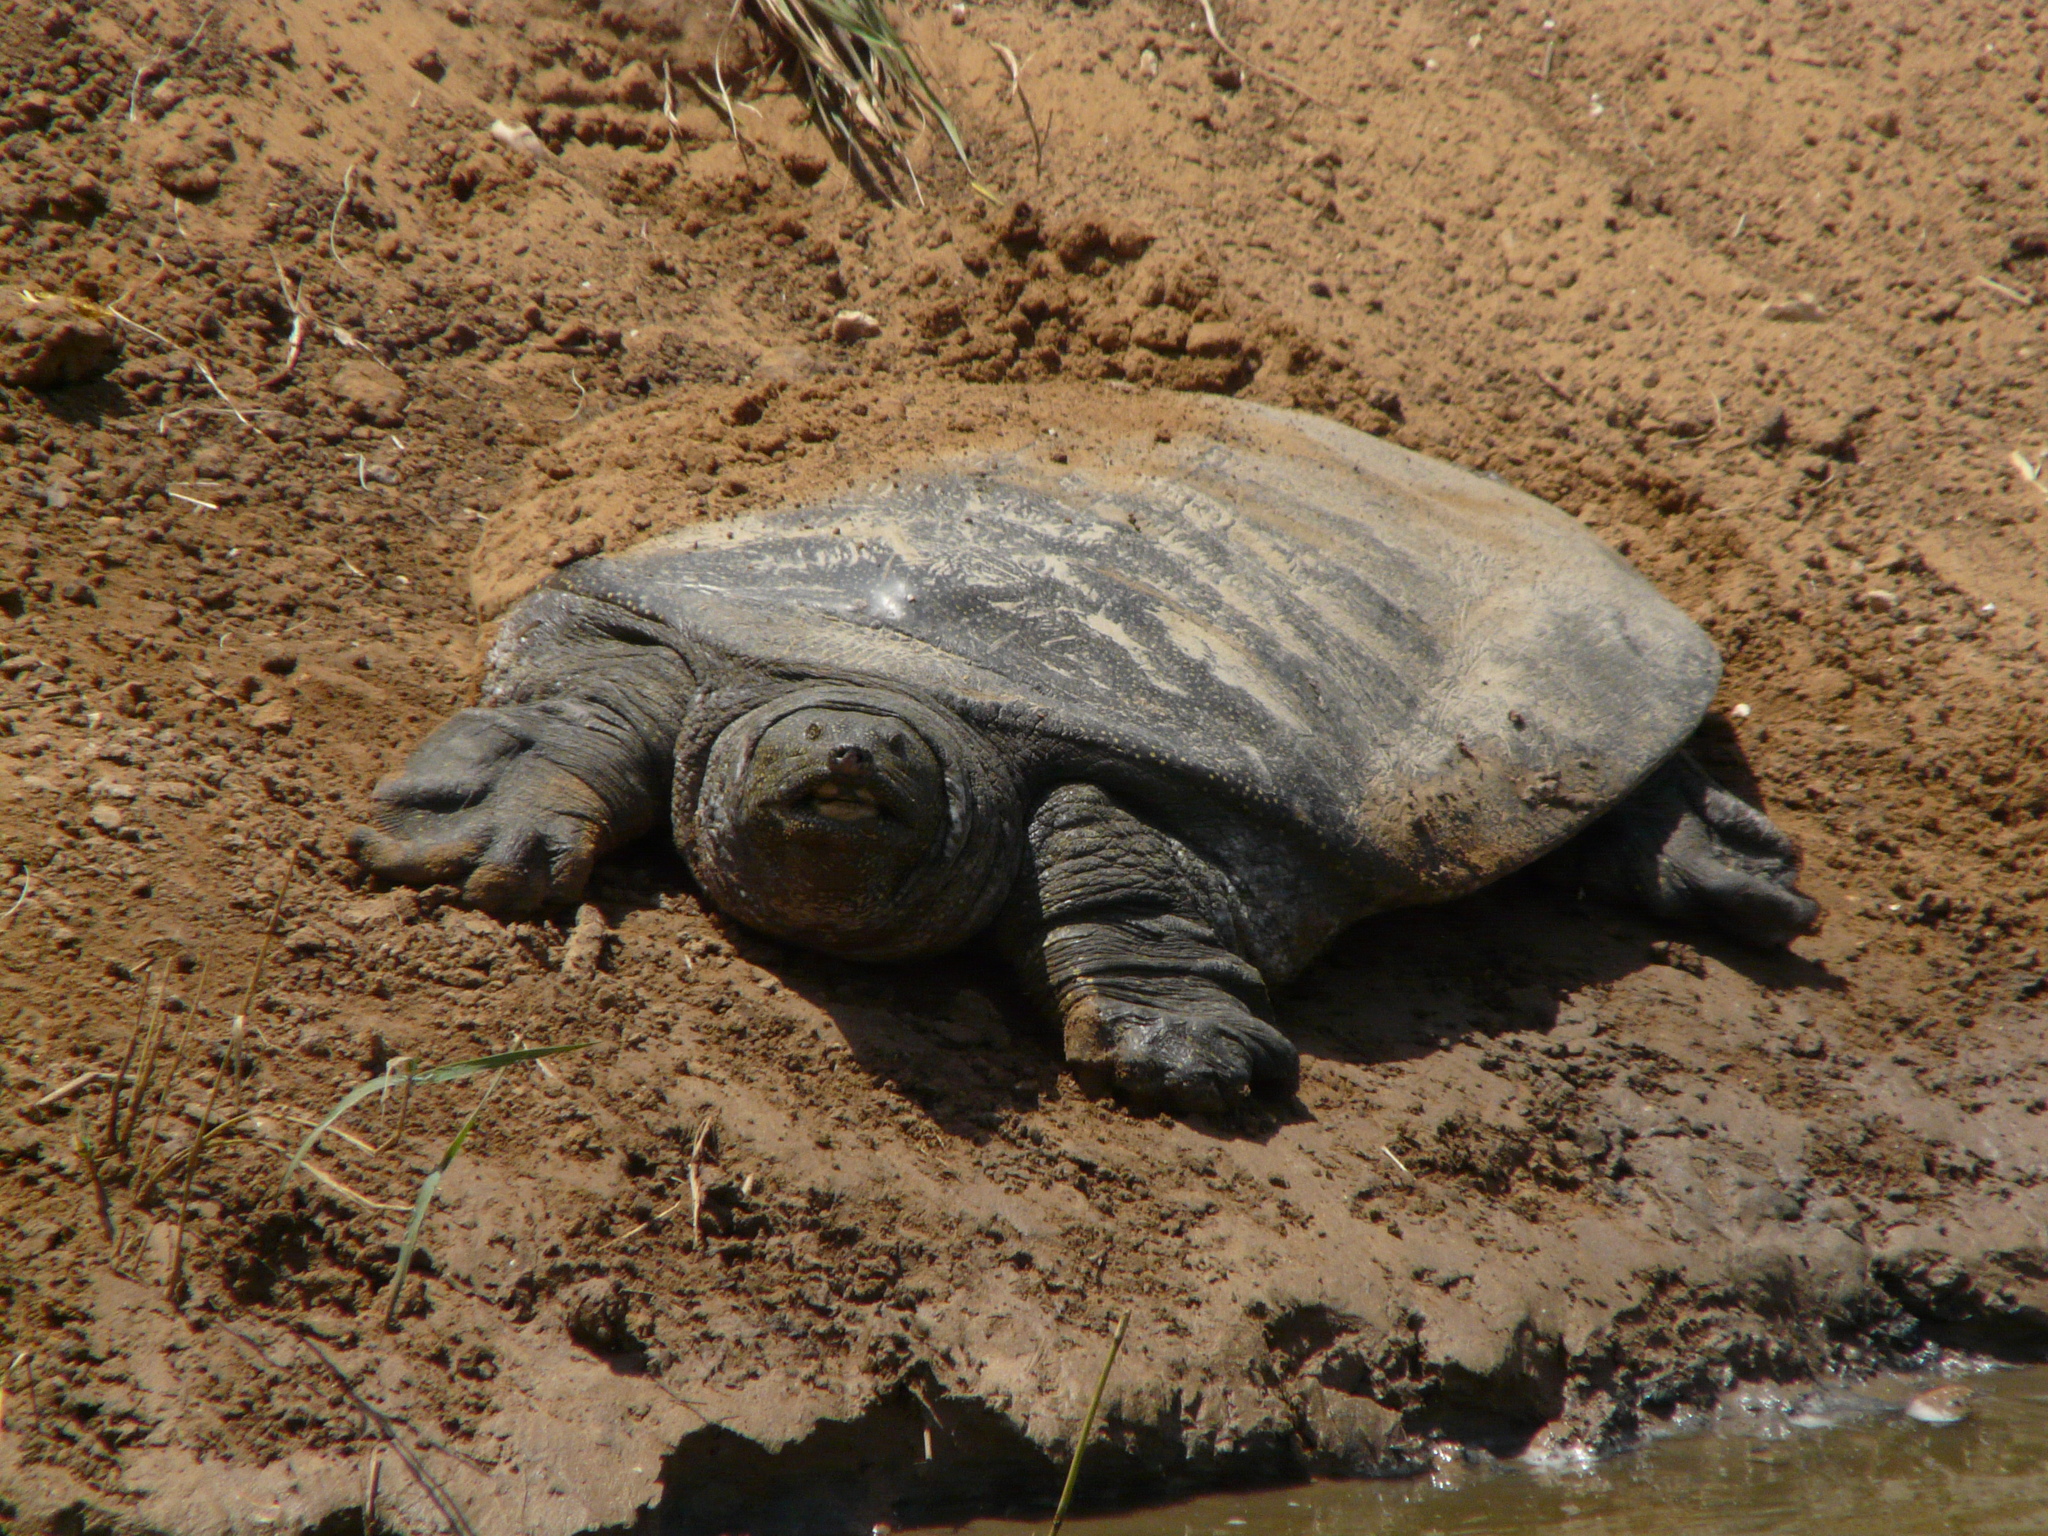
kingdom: Animalia
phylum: Chordata
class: Testudines
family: Trionychidae
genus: Trionyx
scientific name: Trionyx triunguis
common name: African softshell turtle
